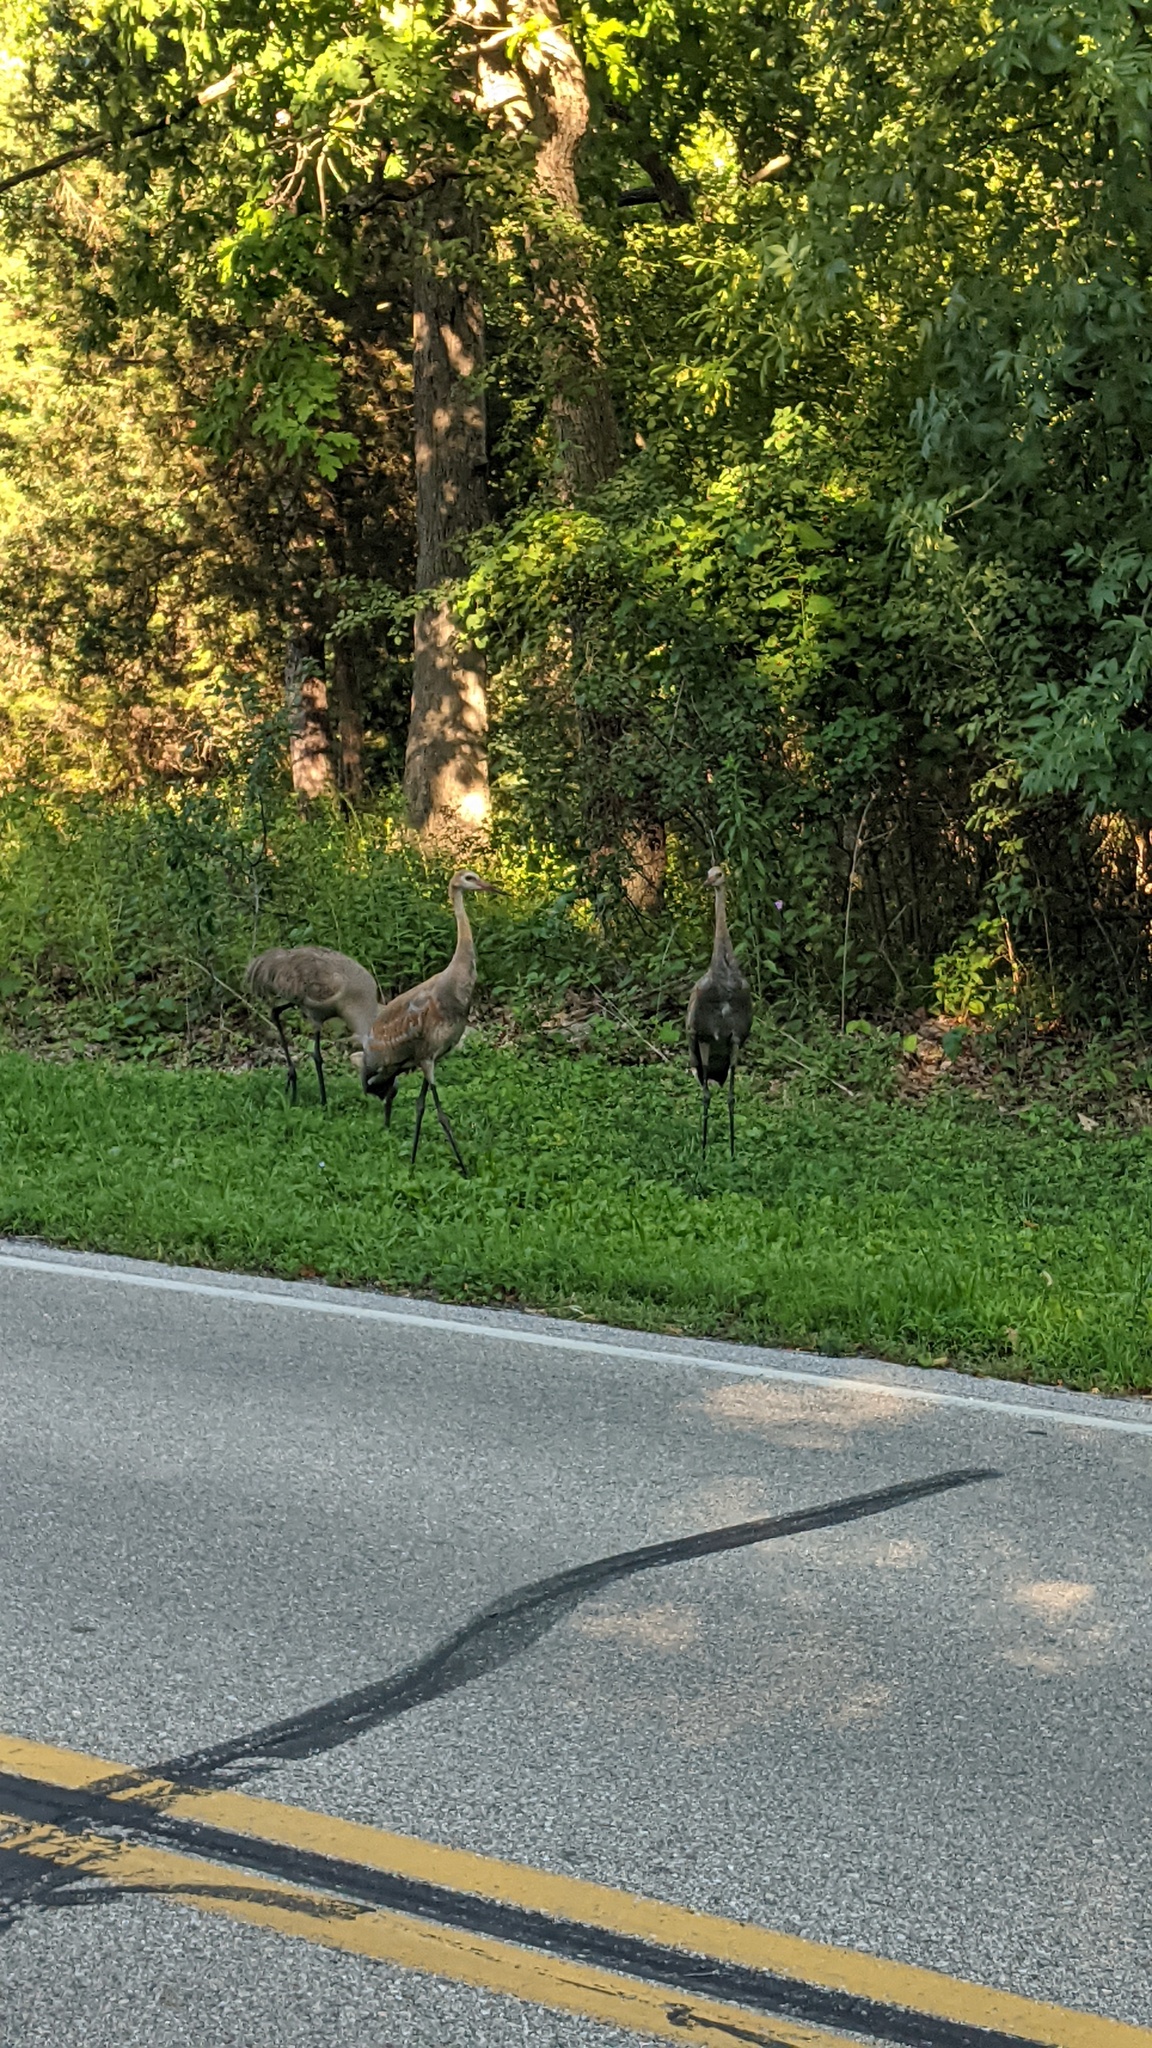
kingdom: Animalia
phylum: Chordata
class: Aves
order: Gruiformes
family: Gruidae
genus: Grus
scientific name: Grus canadensis
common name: Sandhill crane
